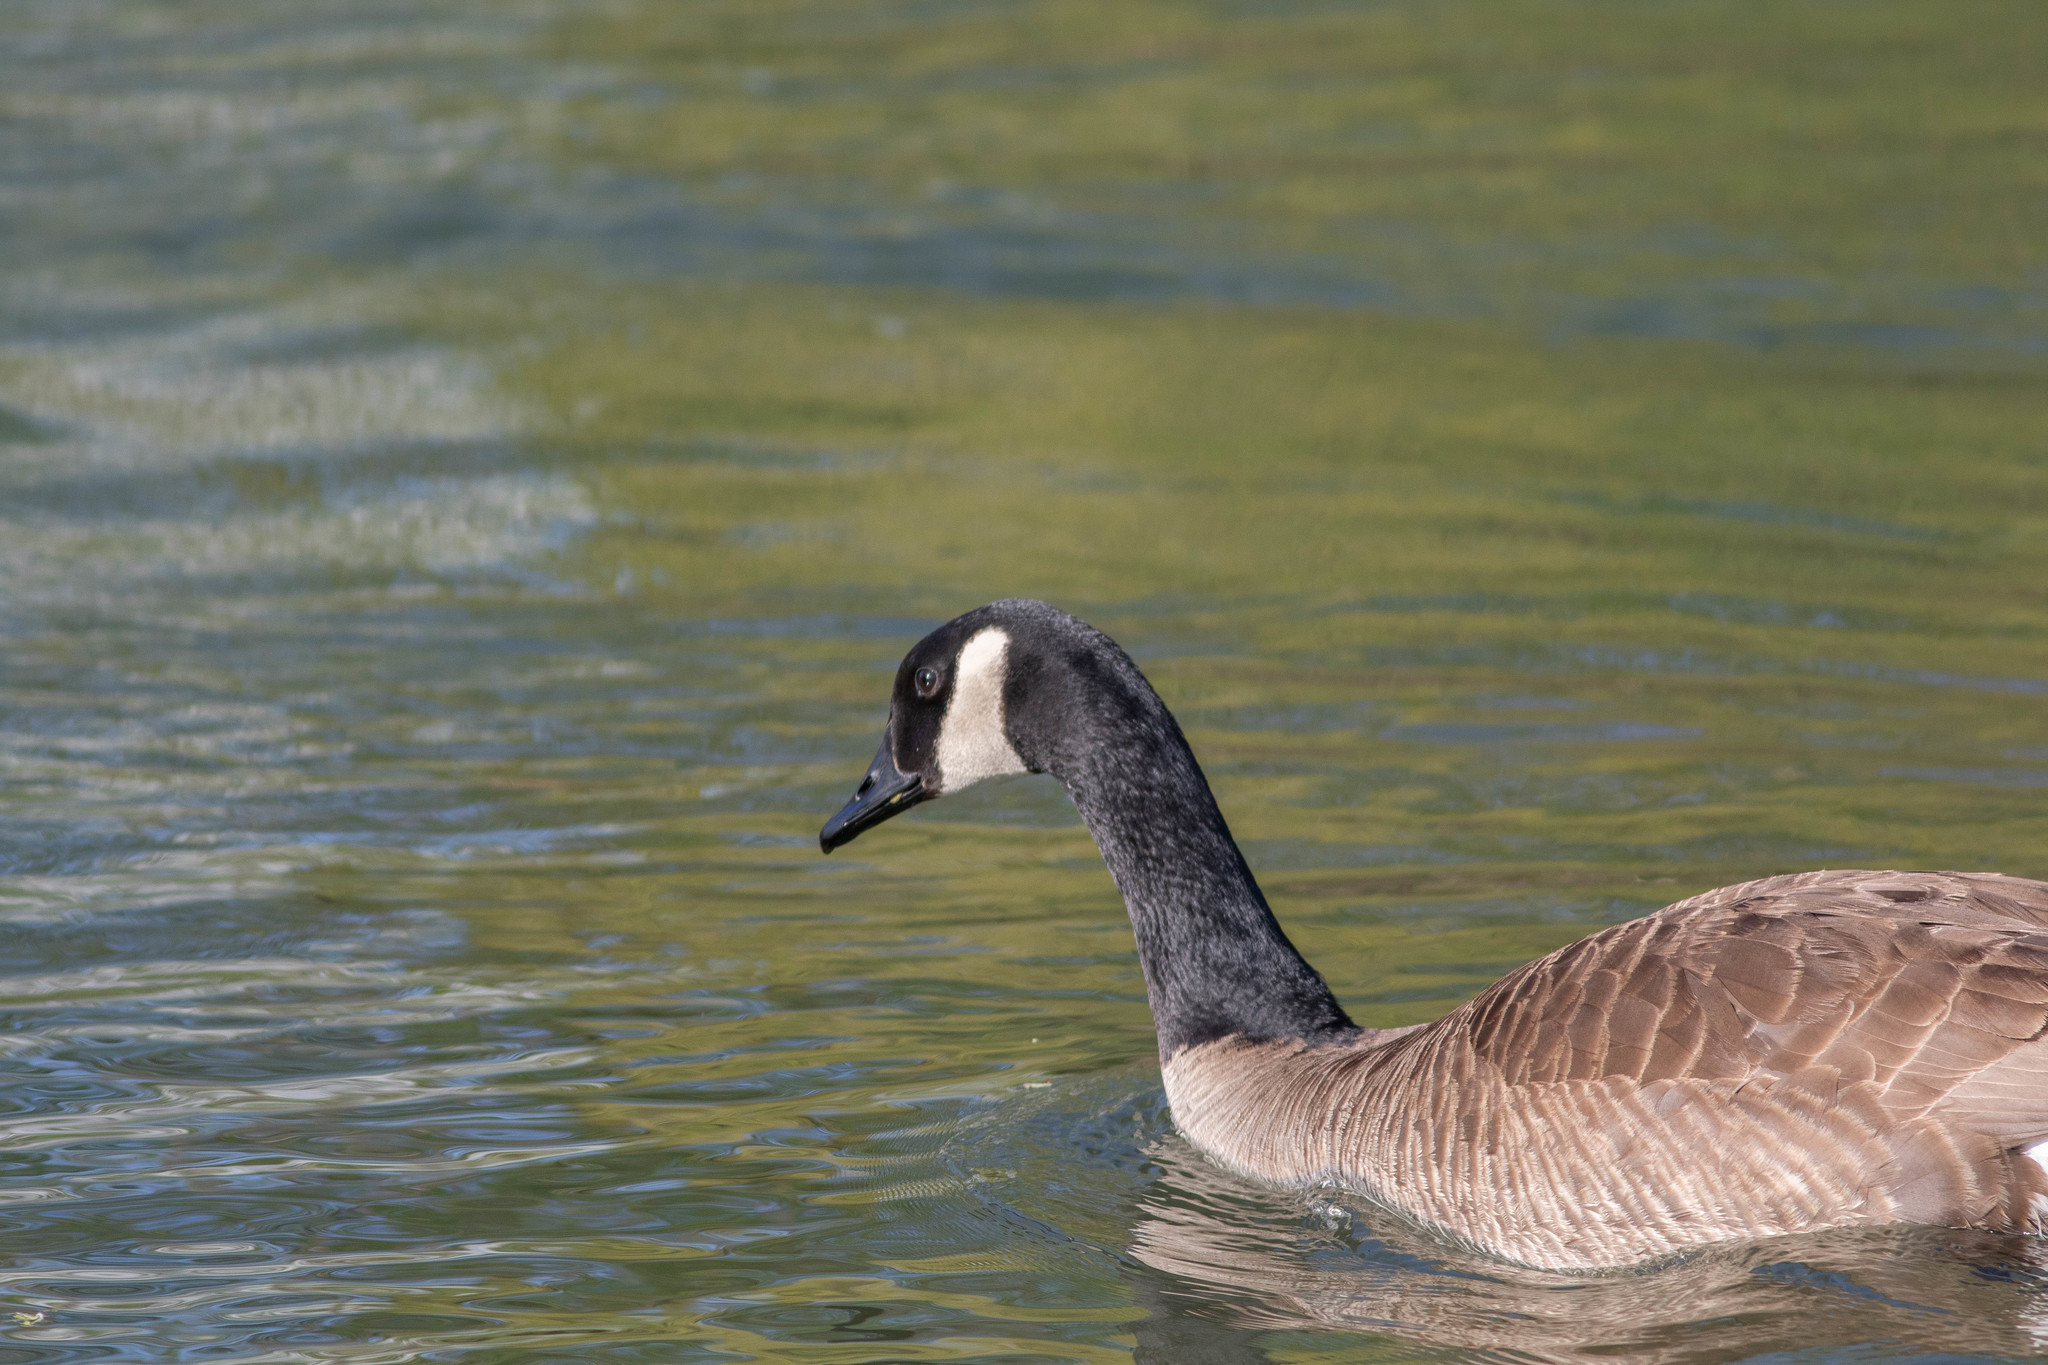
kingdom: Animalia
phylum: Chordata
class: Aves
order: Anseriformes
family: Anatidae
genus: Branta
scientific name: Branta canadensis
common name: Canada goose
